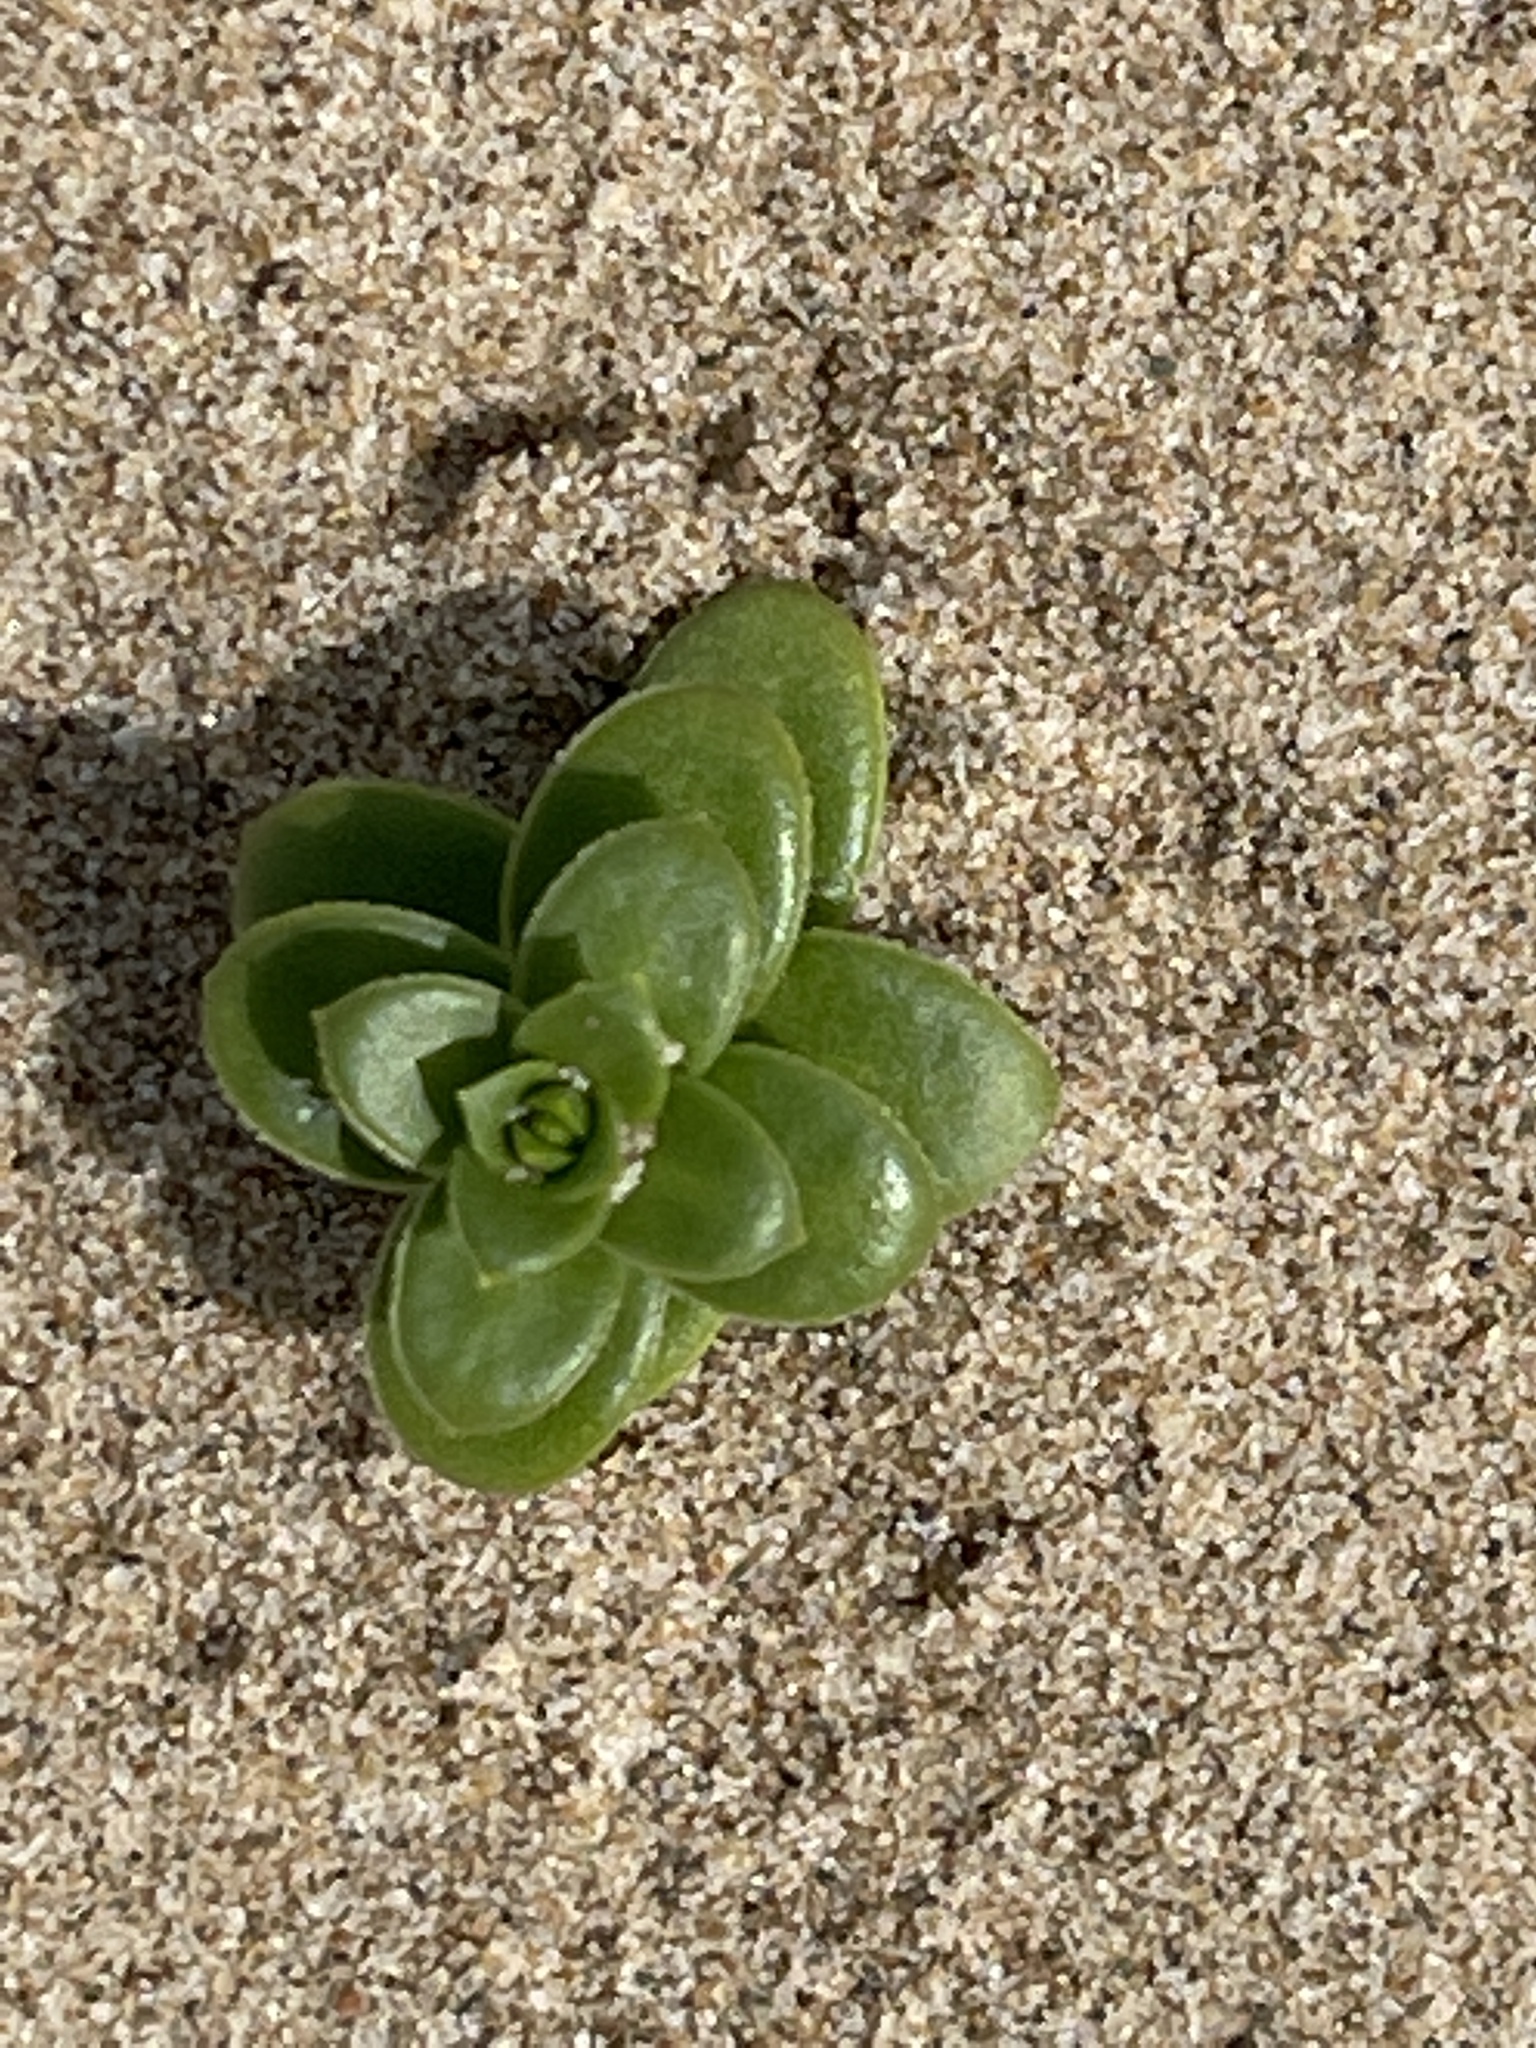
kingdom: Plantae
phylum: Tracheophyta
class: Magnoliopsida
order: Caryophyllales
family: Caryophyllaceae
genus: Honckenya
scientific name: Honckenya peploides
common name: Sea sandwort
